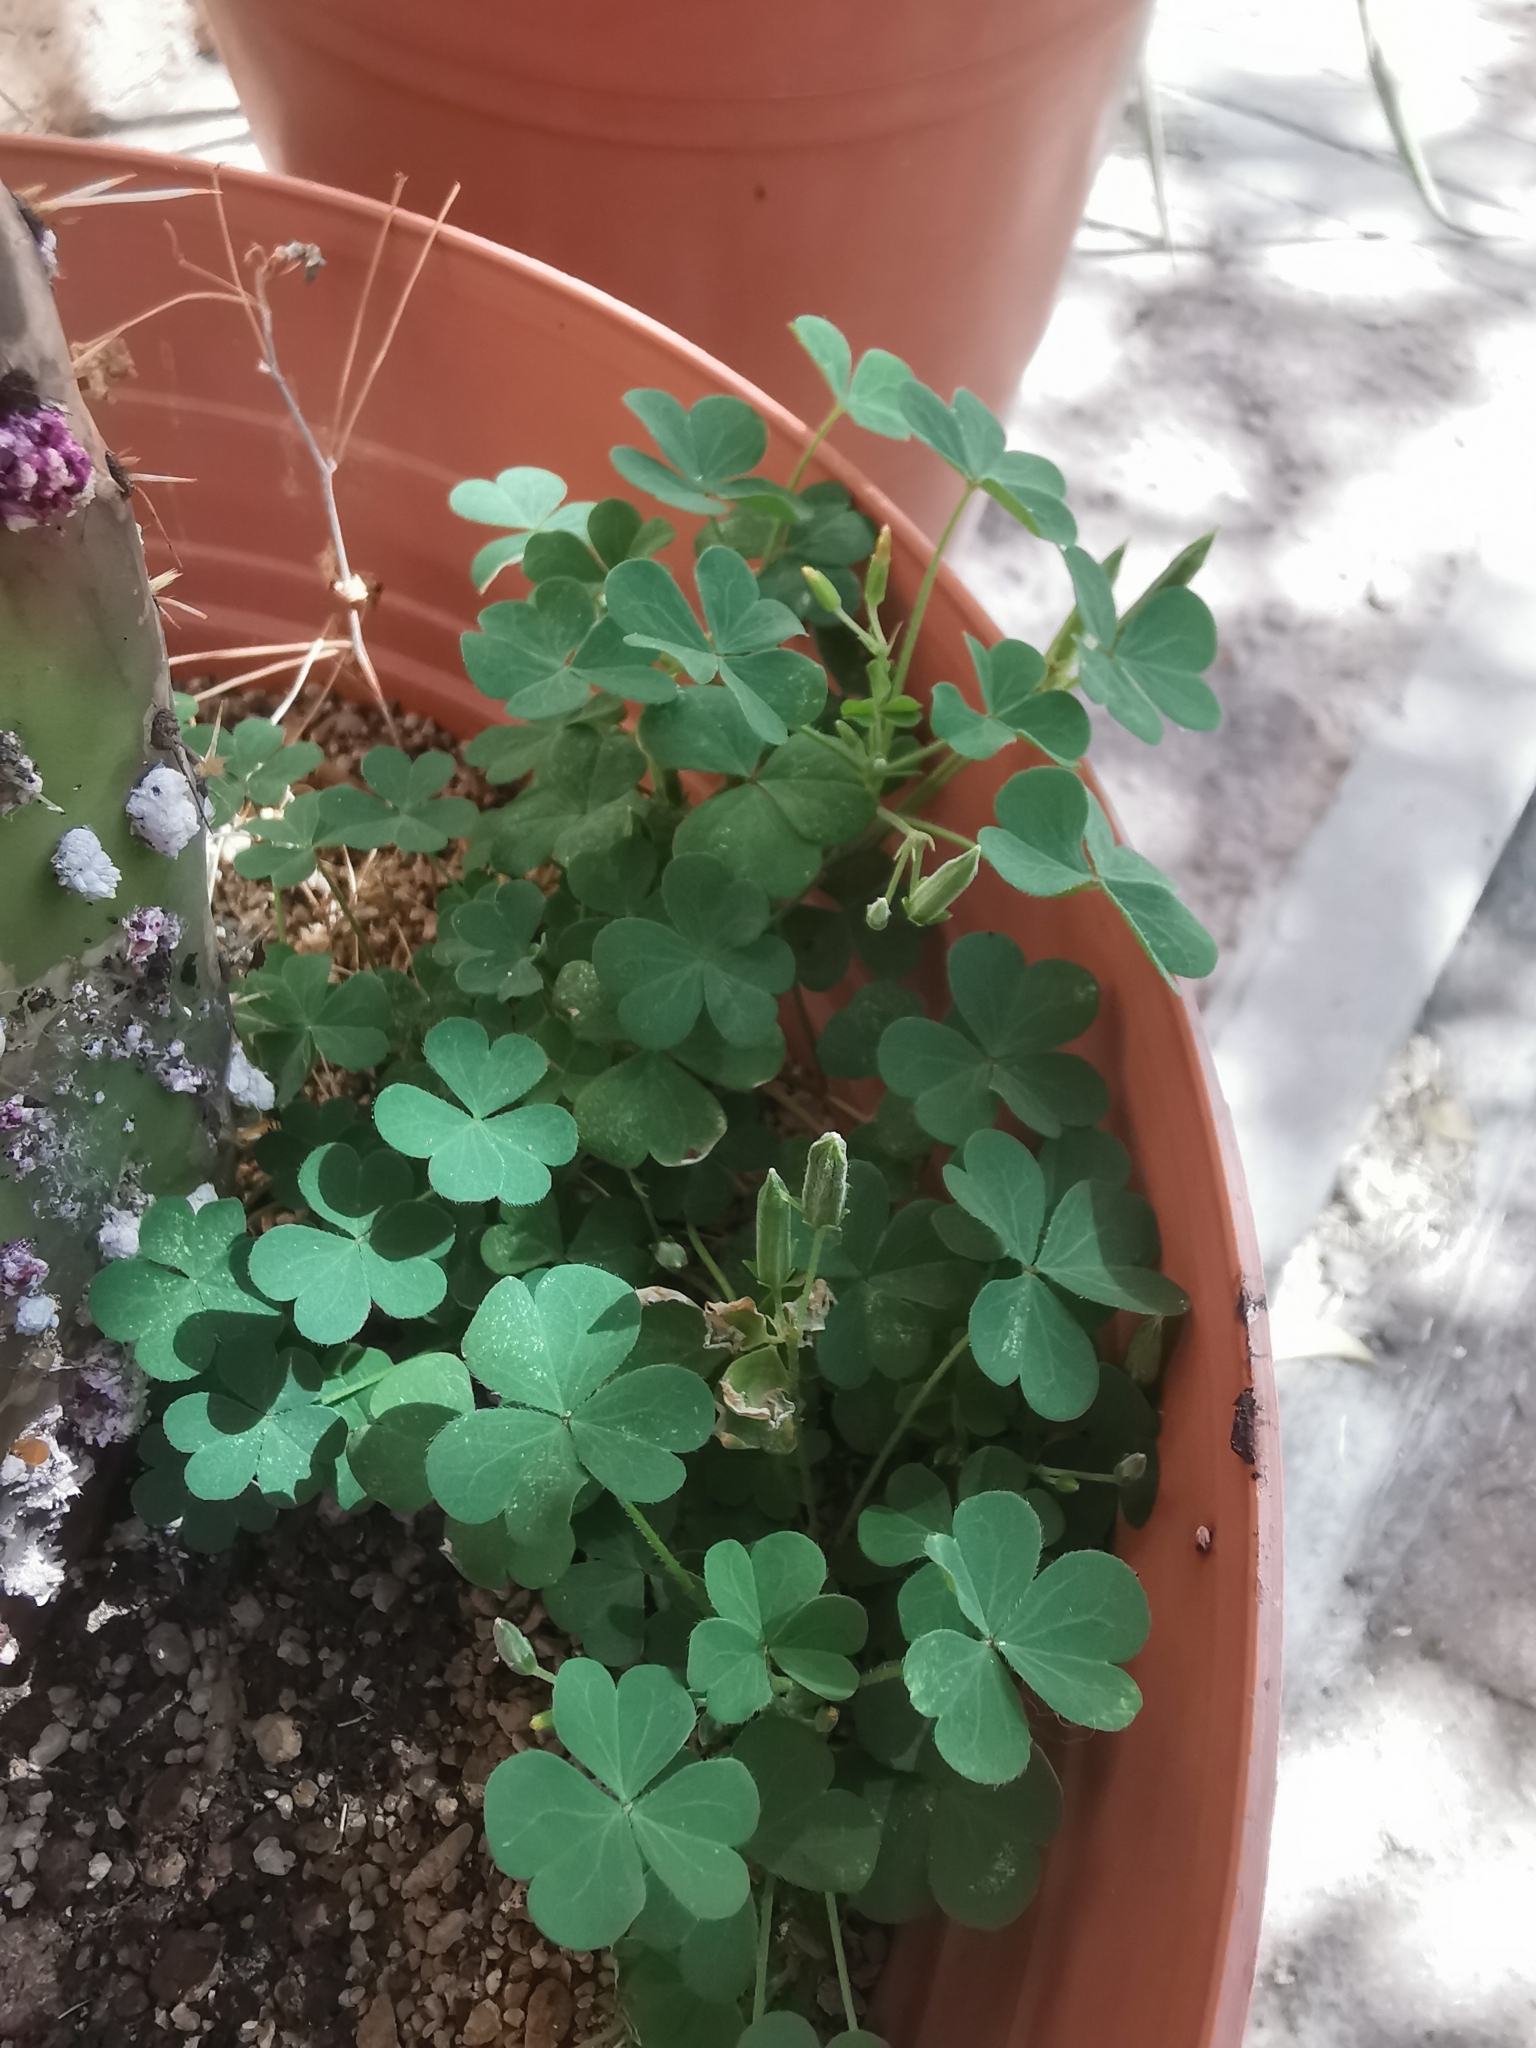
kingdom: Plantae
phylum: Tracheophyta
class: Magnoliopsida
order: Oxalidales
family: Oxalidaceae
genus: Oxalis
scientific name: Oxalis corniculata
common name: Procumbent yellow-sorrel
